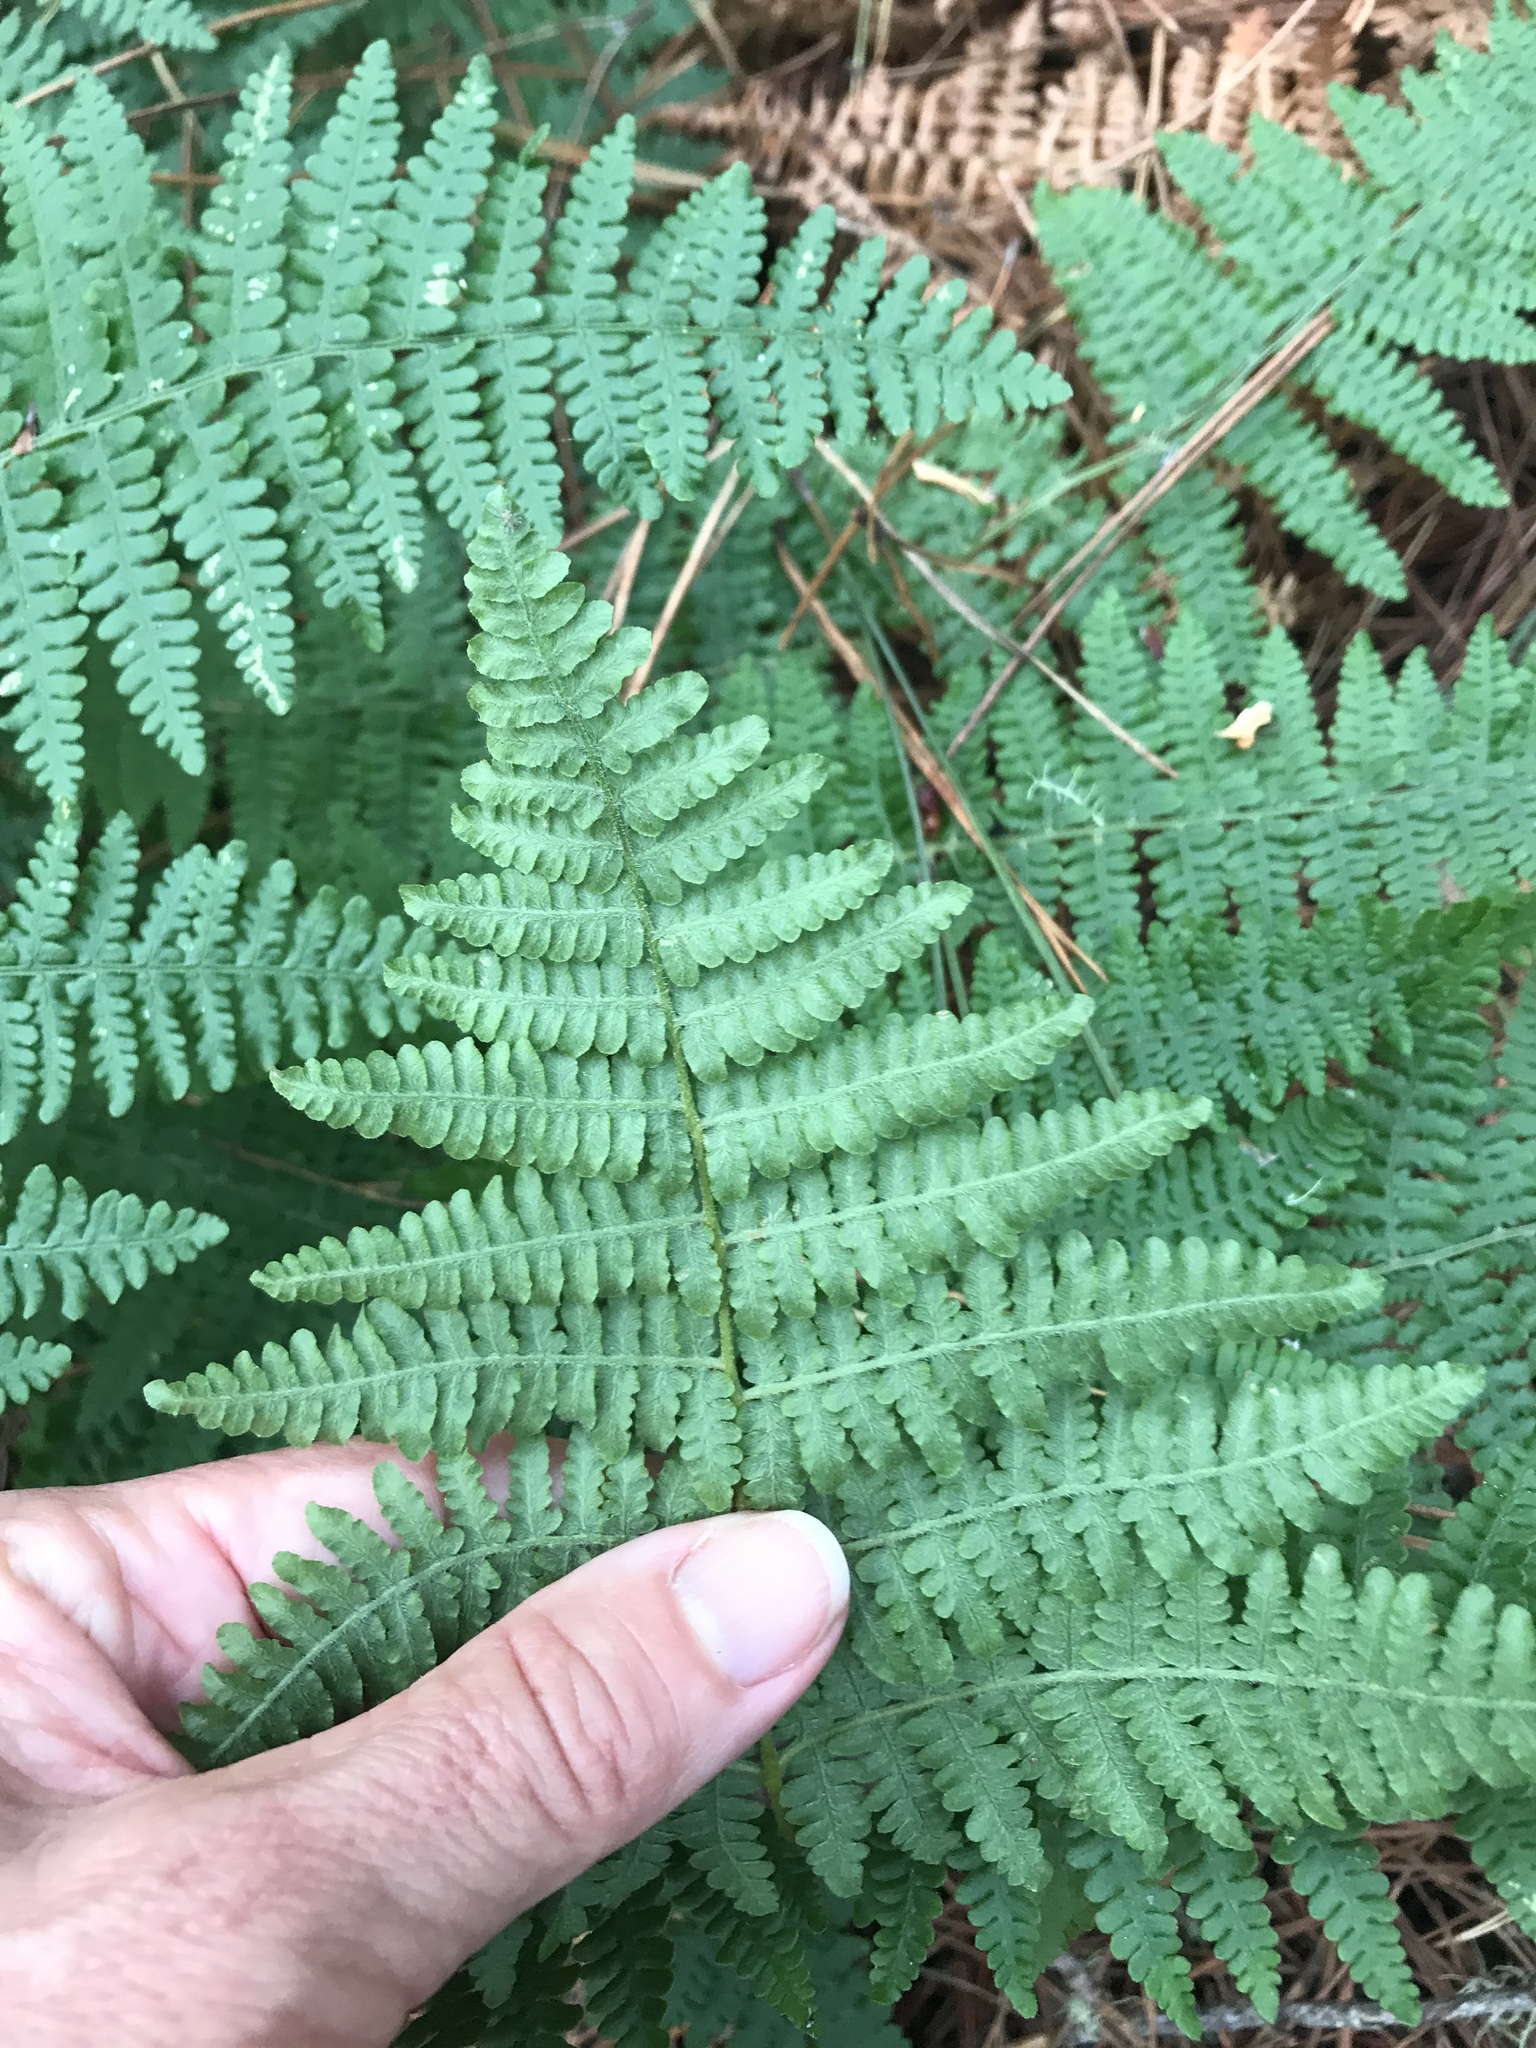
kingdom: Plantae
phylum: Tracheophyta
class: Polypodiopsida
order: Polypodiales
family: Dennstaedtiaceae
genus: Pteridium
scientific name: Pteridium aquilinum
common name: Bracken
